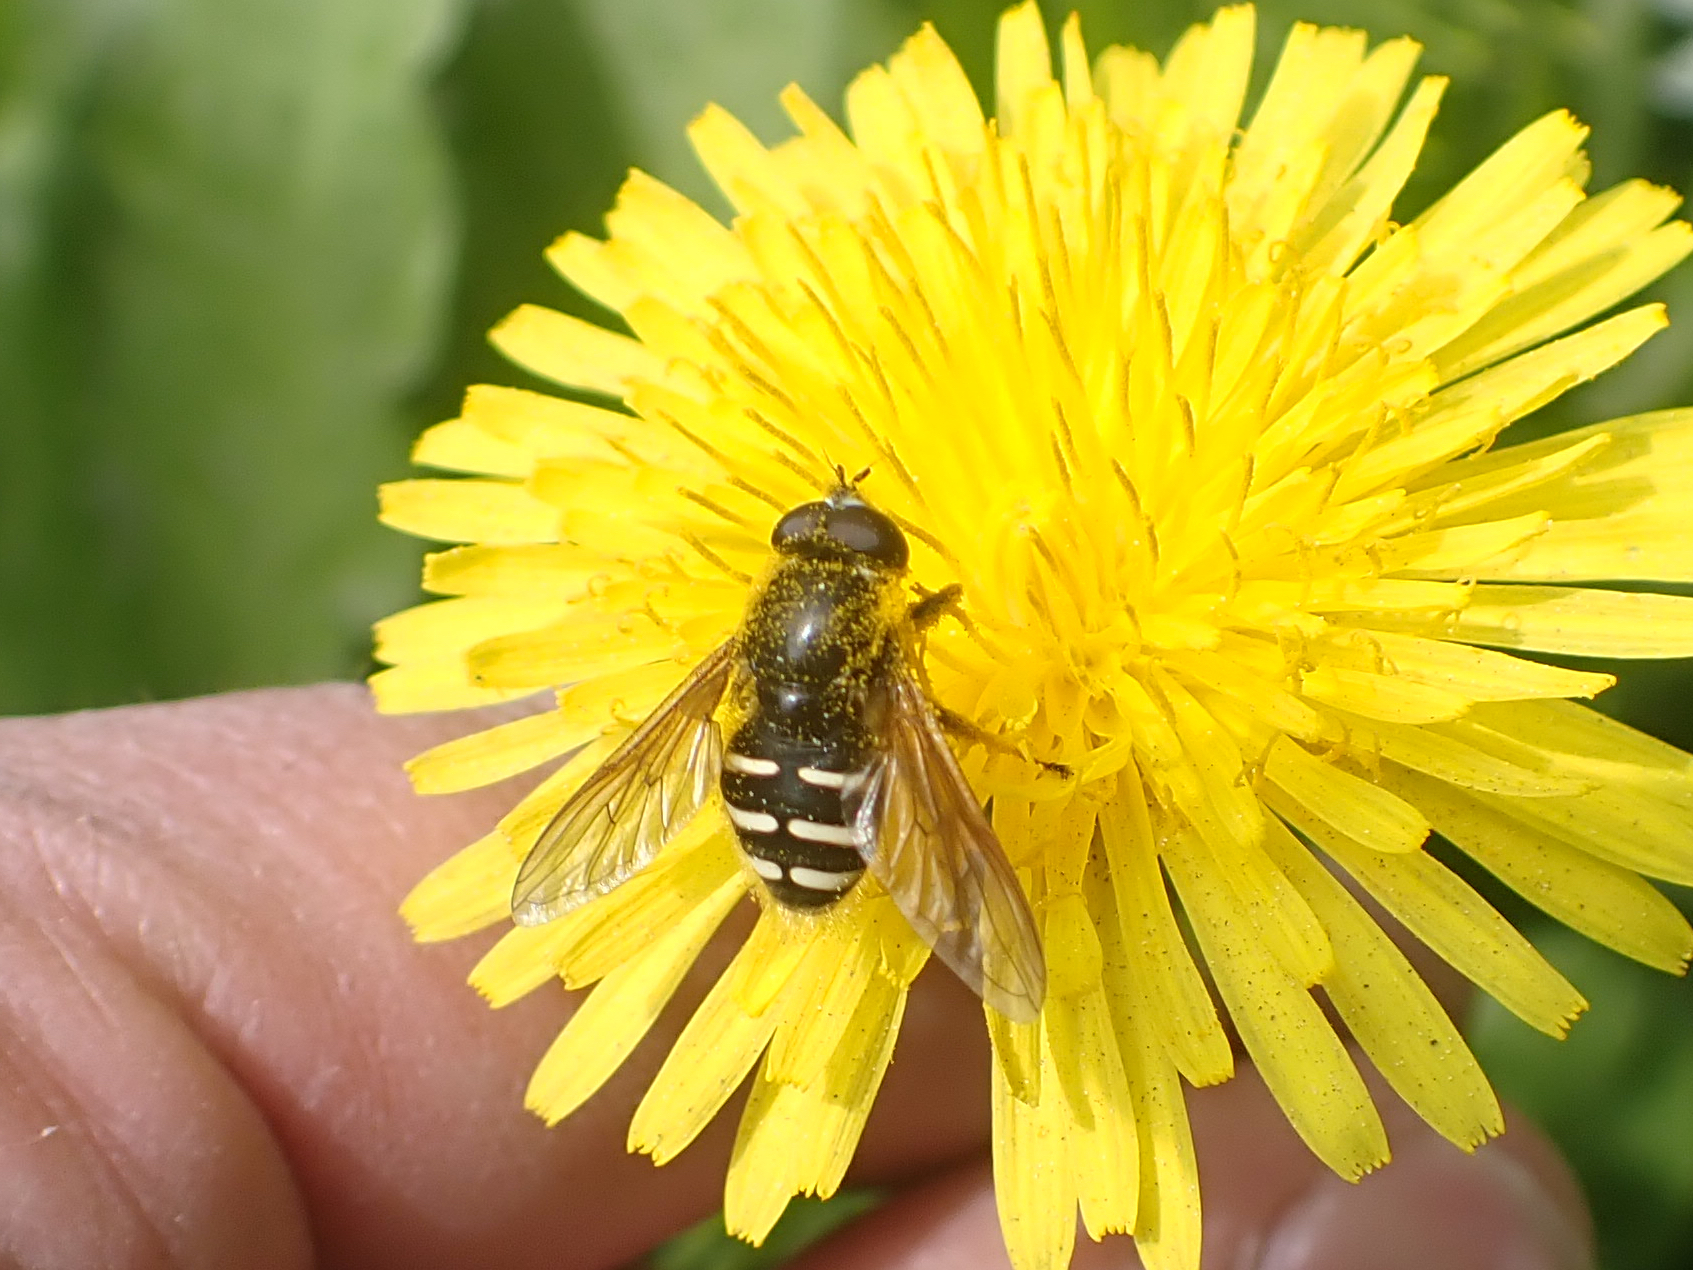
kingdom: Animalia
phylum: Arthropoda
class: Insecta
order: Diptera
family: Syrphidae
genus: Sericomyia
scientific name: Sericomyia chalcopyga
